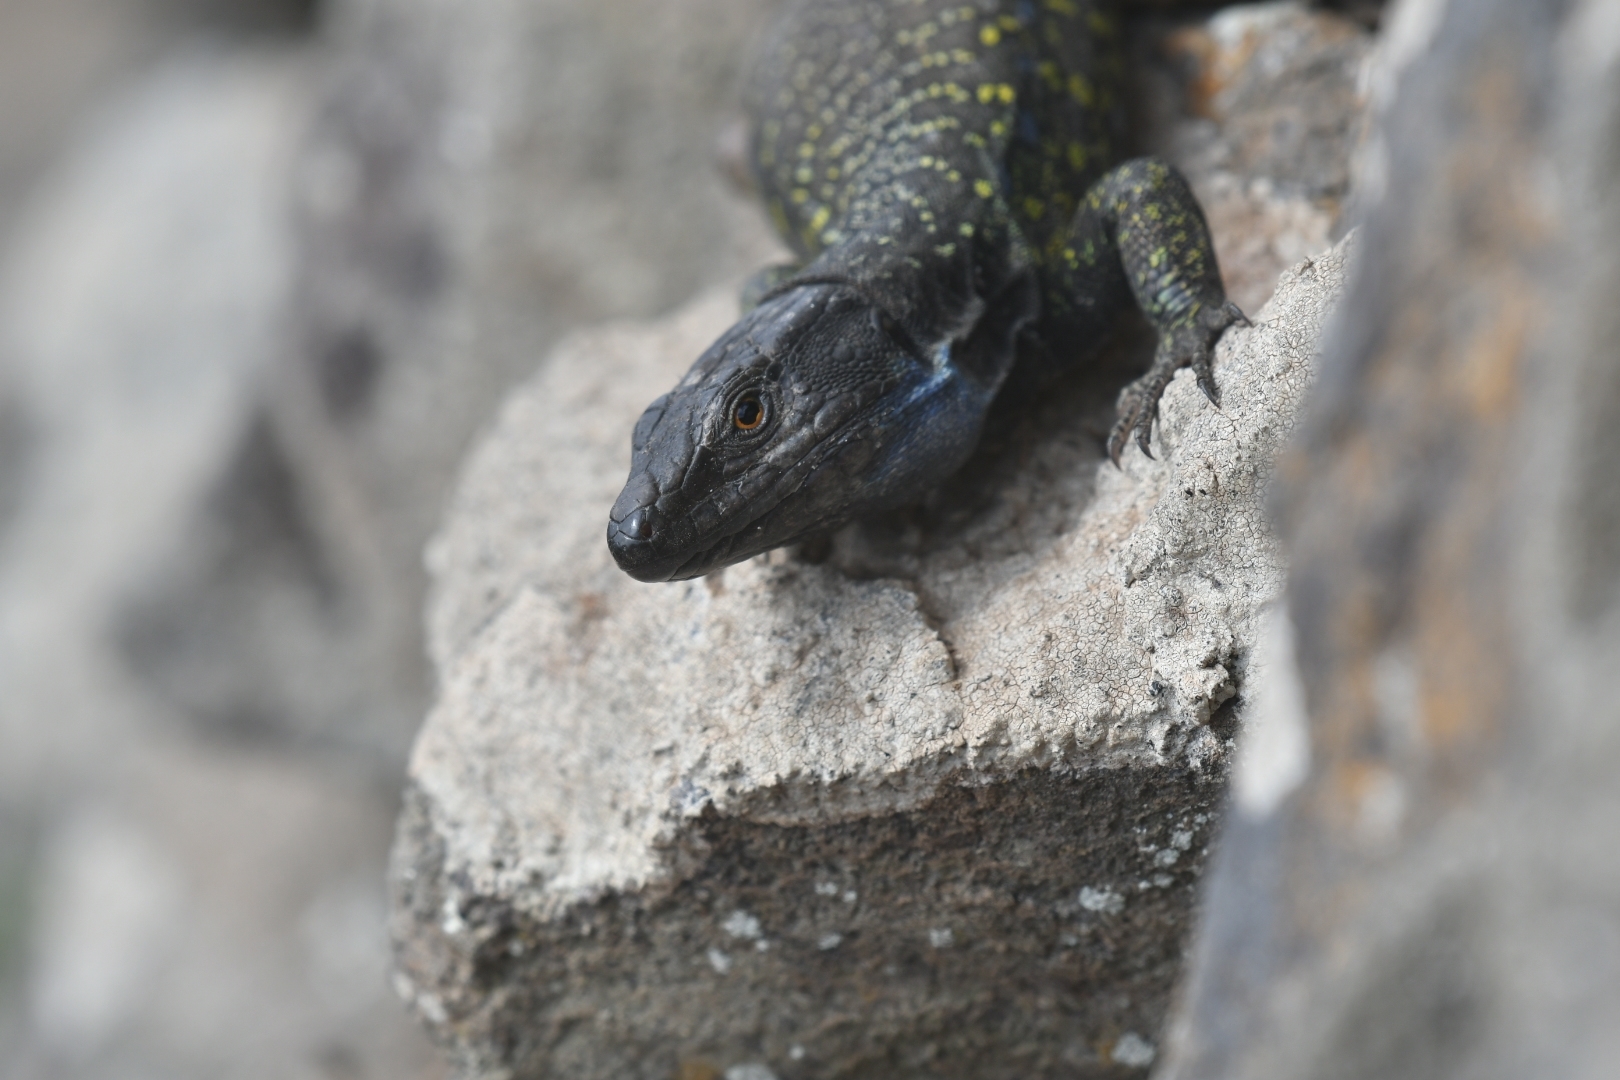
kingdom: Animalia
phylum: Chordata
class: Squamata
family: Lacertidae
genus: Gallotia
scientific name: Gallotia galloti
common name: Gallot's lizard
